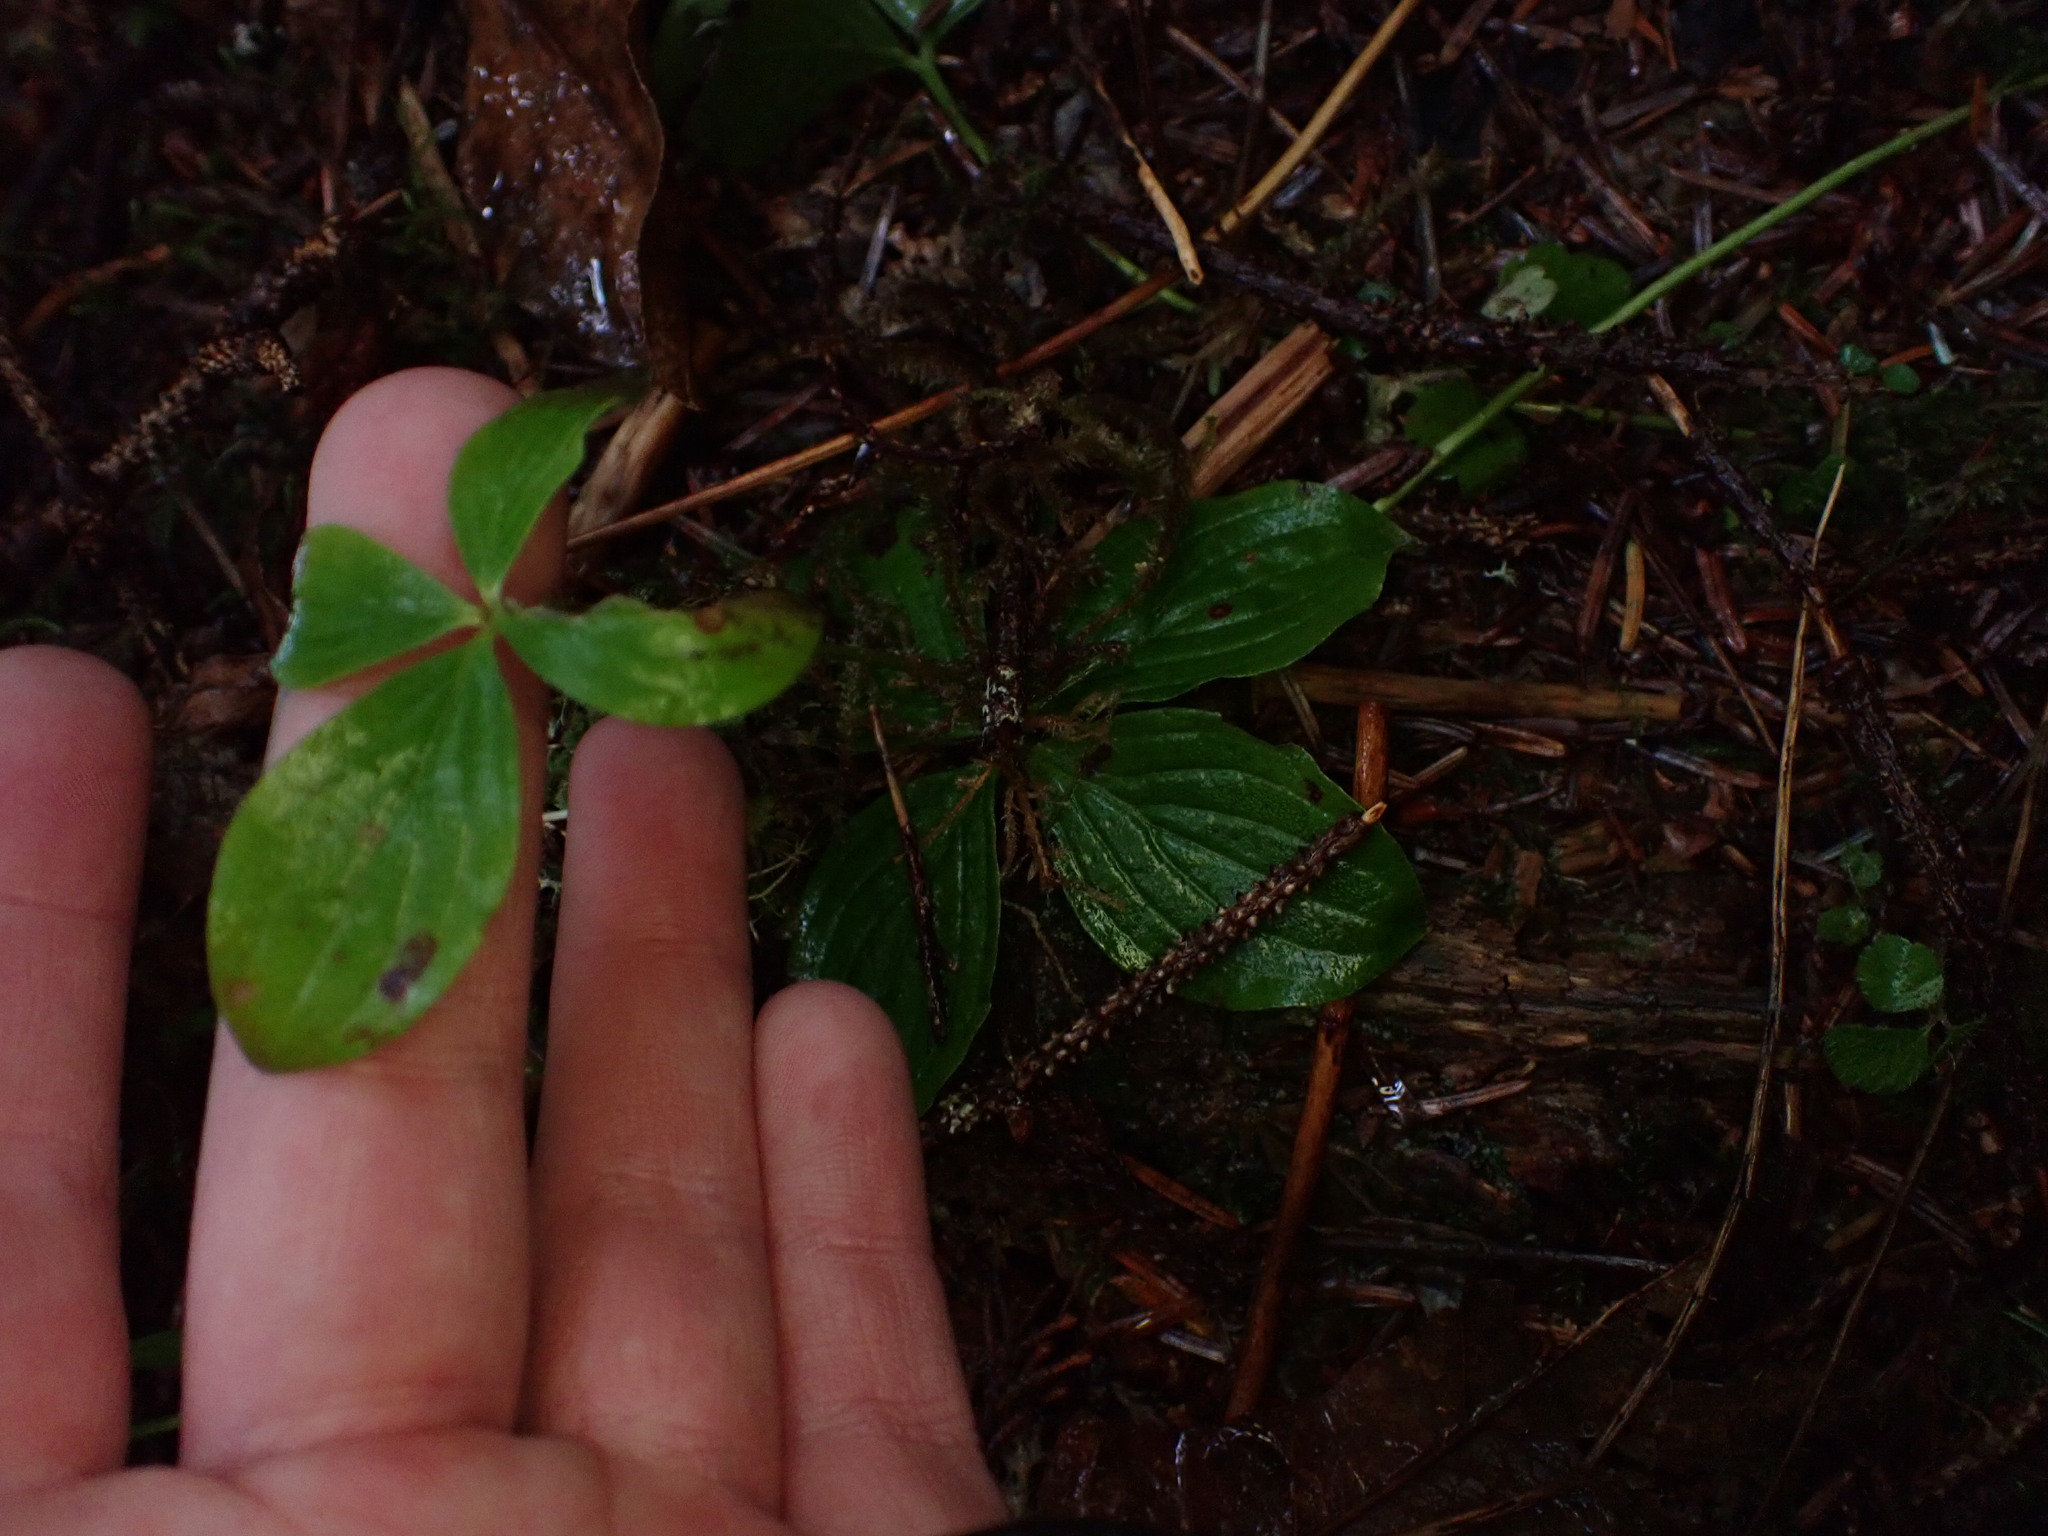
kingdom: Plantae
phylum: Tracheophyta
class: Magnoliopsida
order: Cornales
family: Cornaceae
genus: Cornus
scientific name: Cornus unalaschkensis
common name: Alaska bunchberry
